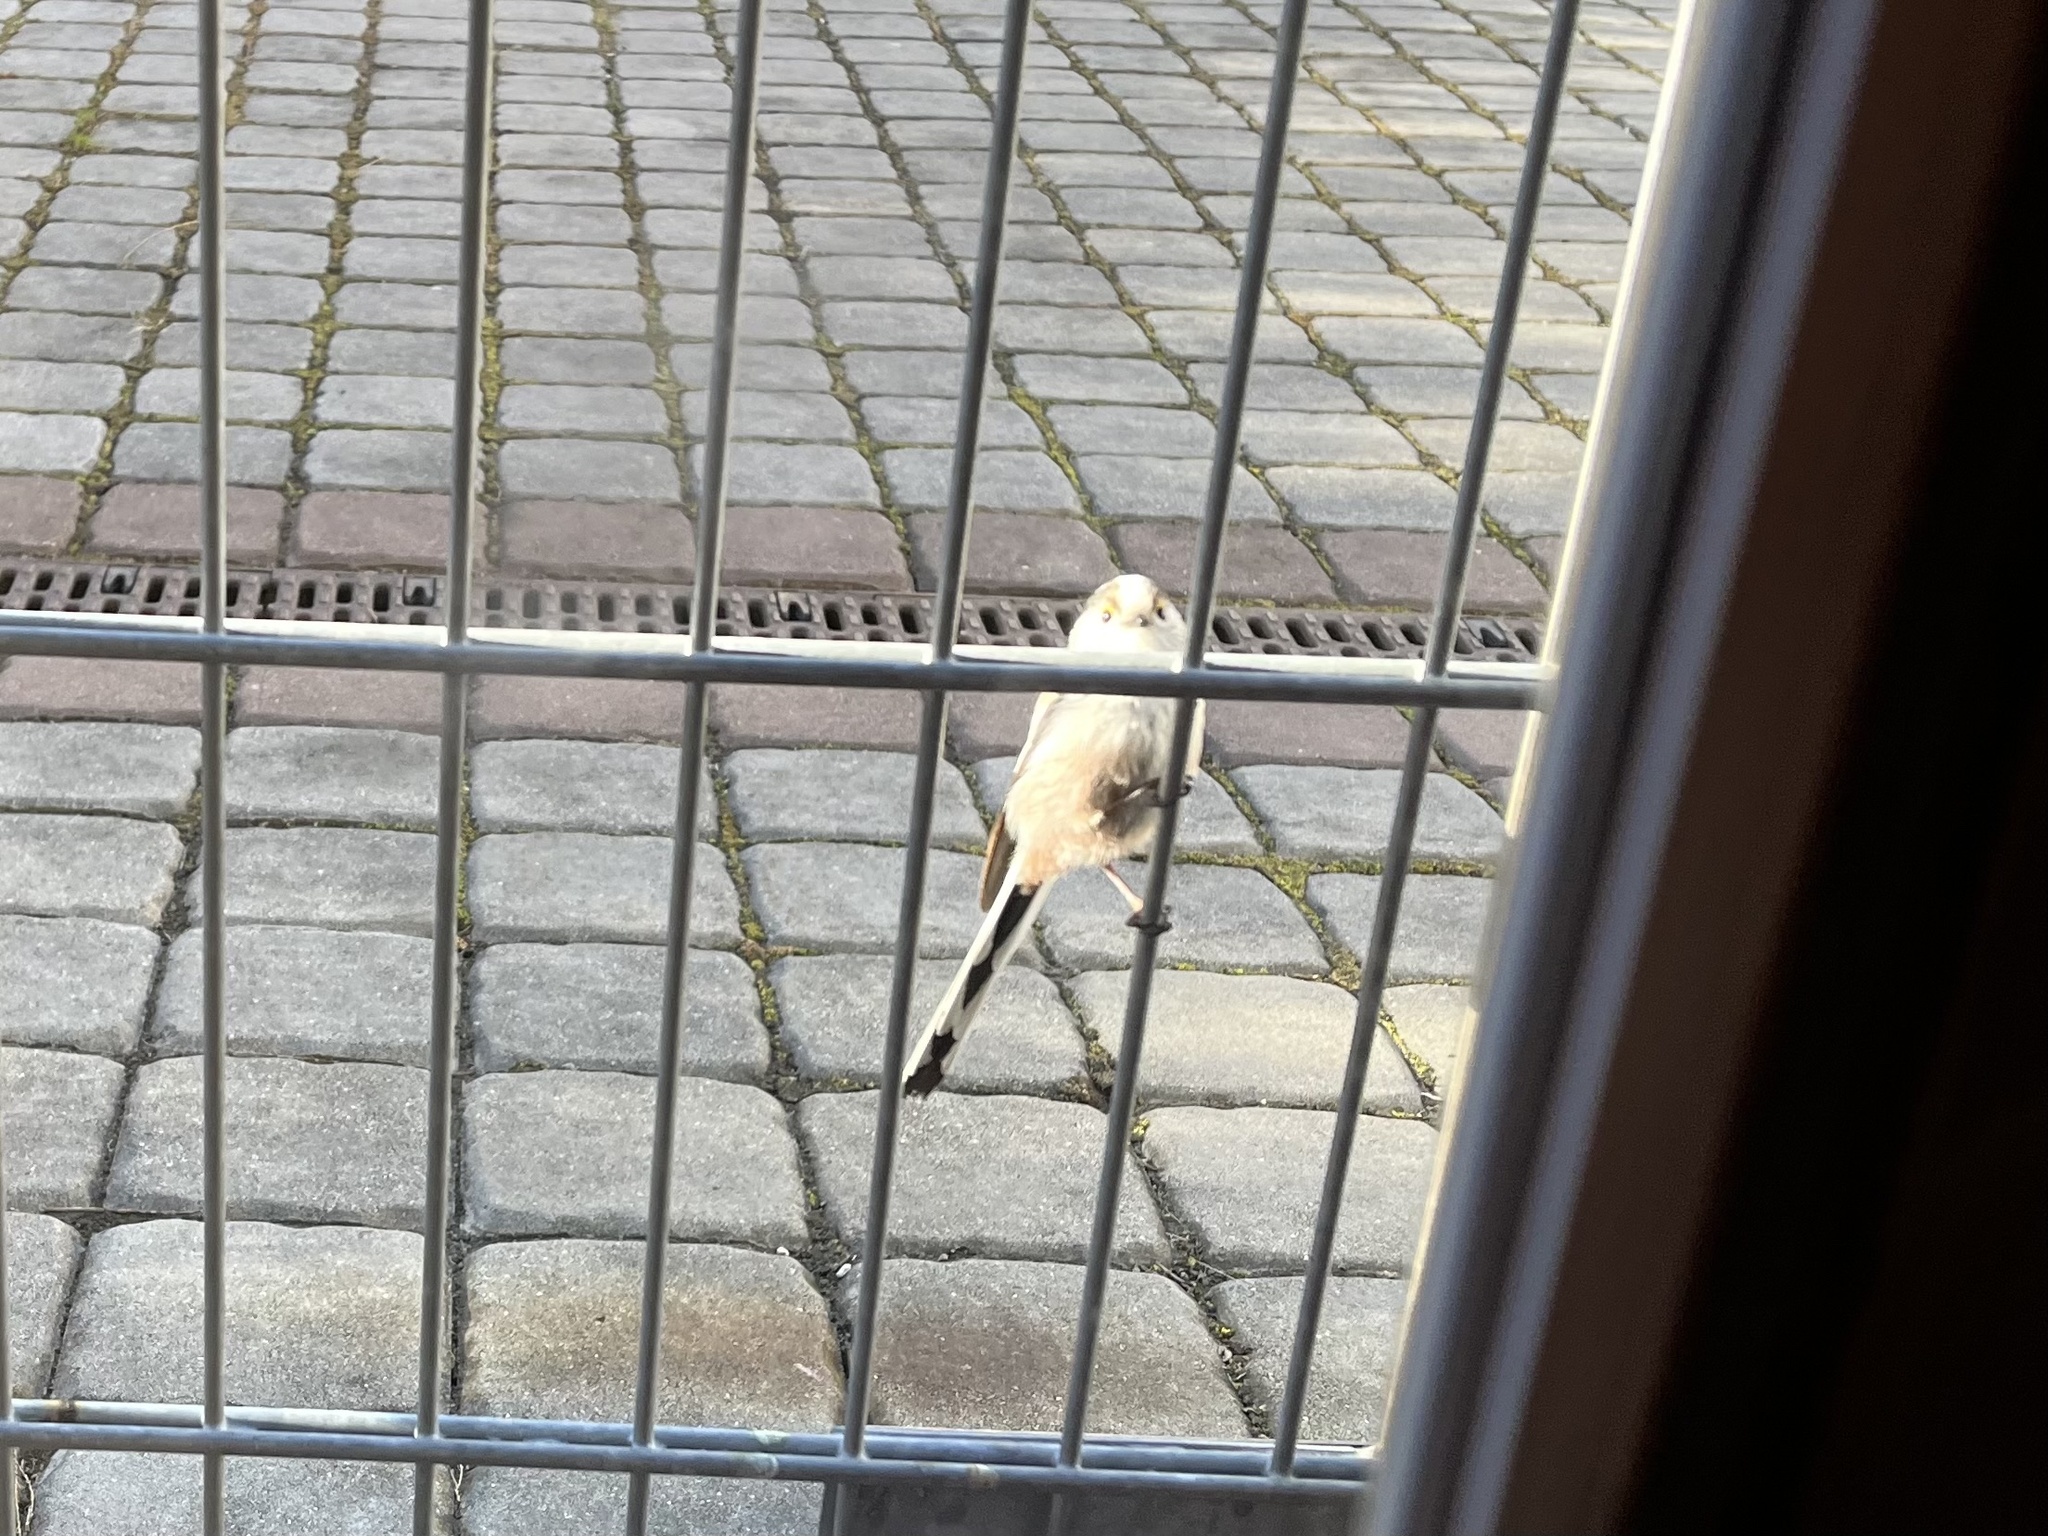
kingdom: Animalia
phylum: Chordata
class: Aves
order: Passeriformes
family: Aegithalidae
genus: Aegithalos
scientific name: Aegithalos caudatus
